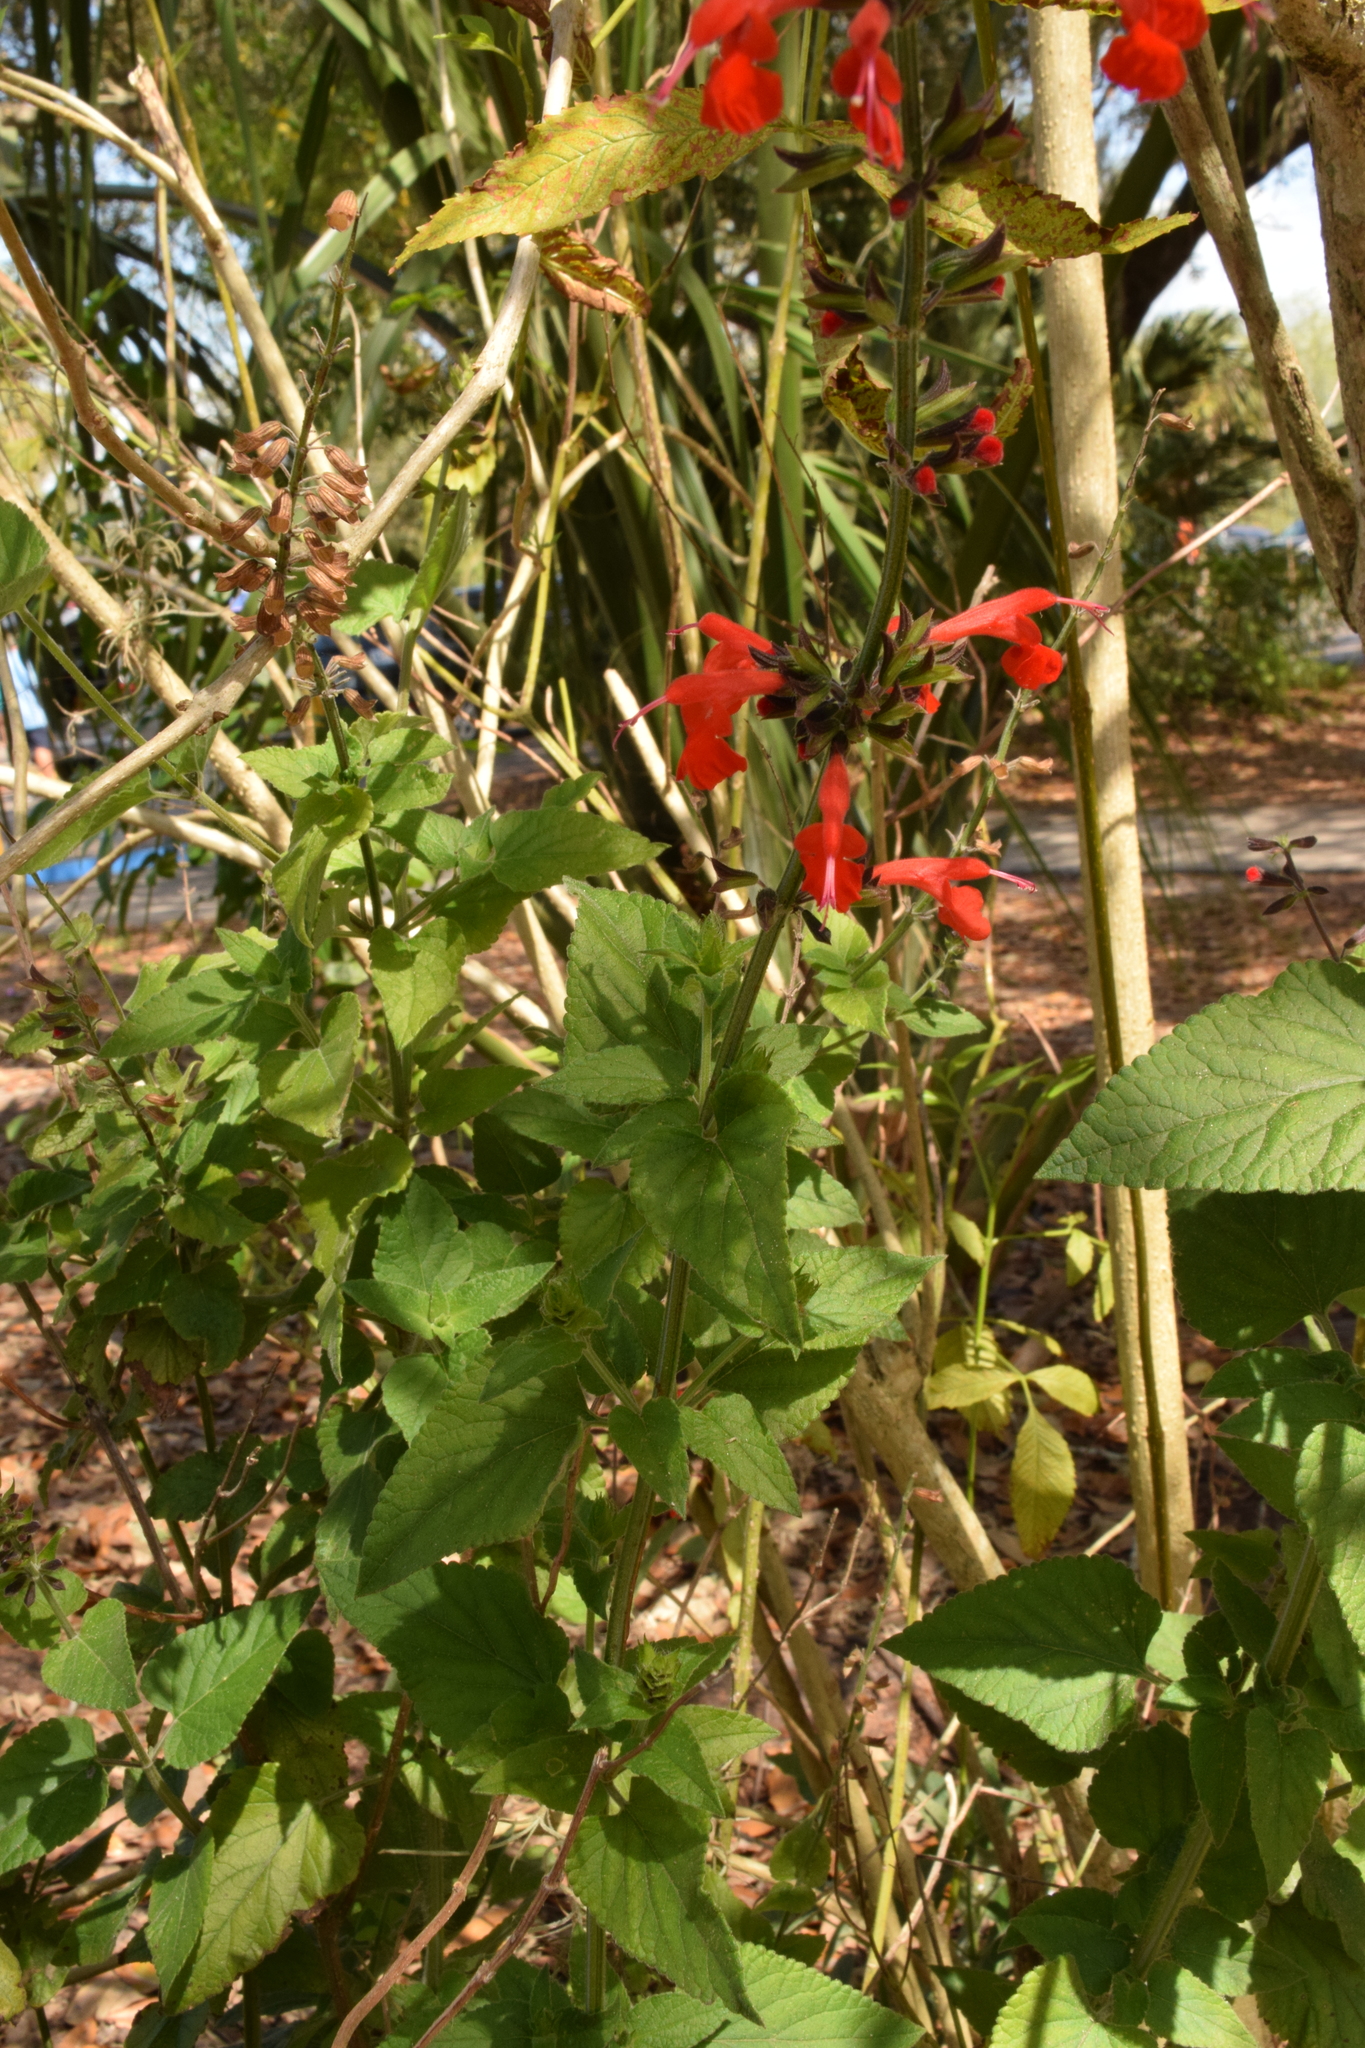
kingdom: Plantae
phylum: Tracheophyta
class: Magnoliopsida
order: Lamiales
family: Lamiaceae
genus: Salvia
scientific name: Salvia coccinea
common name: Blood sage
